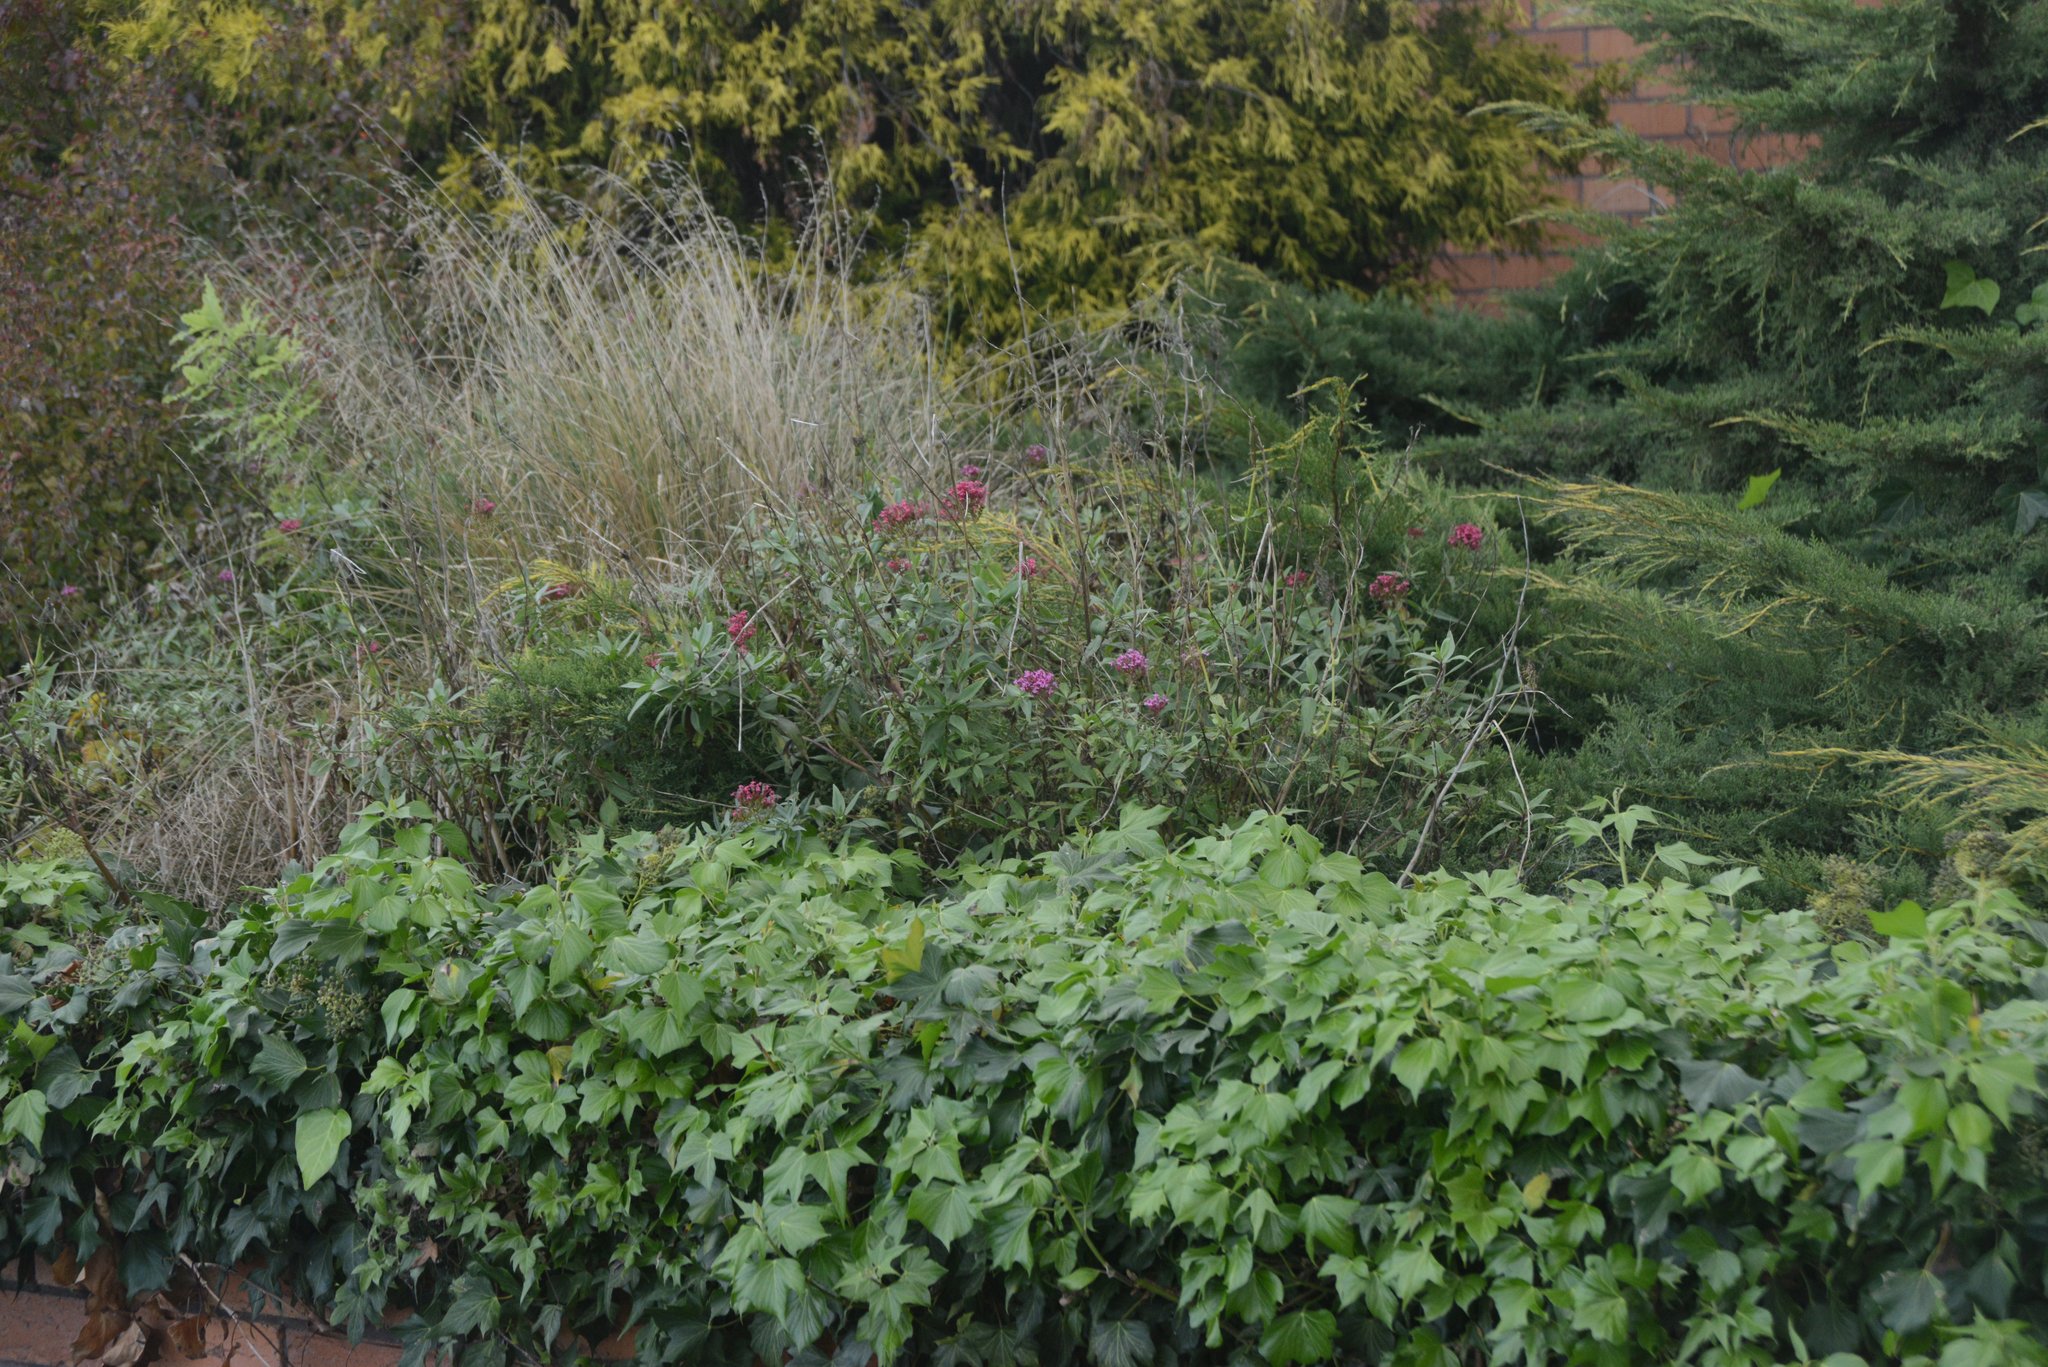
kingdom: Plantae
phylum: Tracheophyta
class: Magnoliopsida
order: Dipsacales
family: Caprifoliaceae
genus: Centranthus
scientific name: Centranthus ruber
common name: Red valerian
